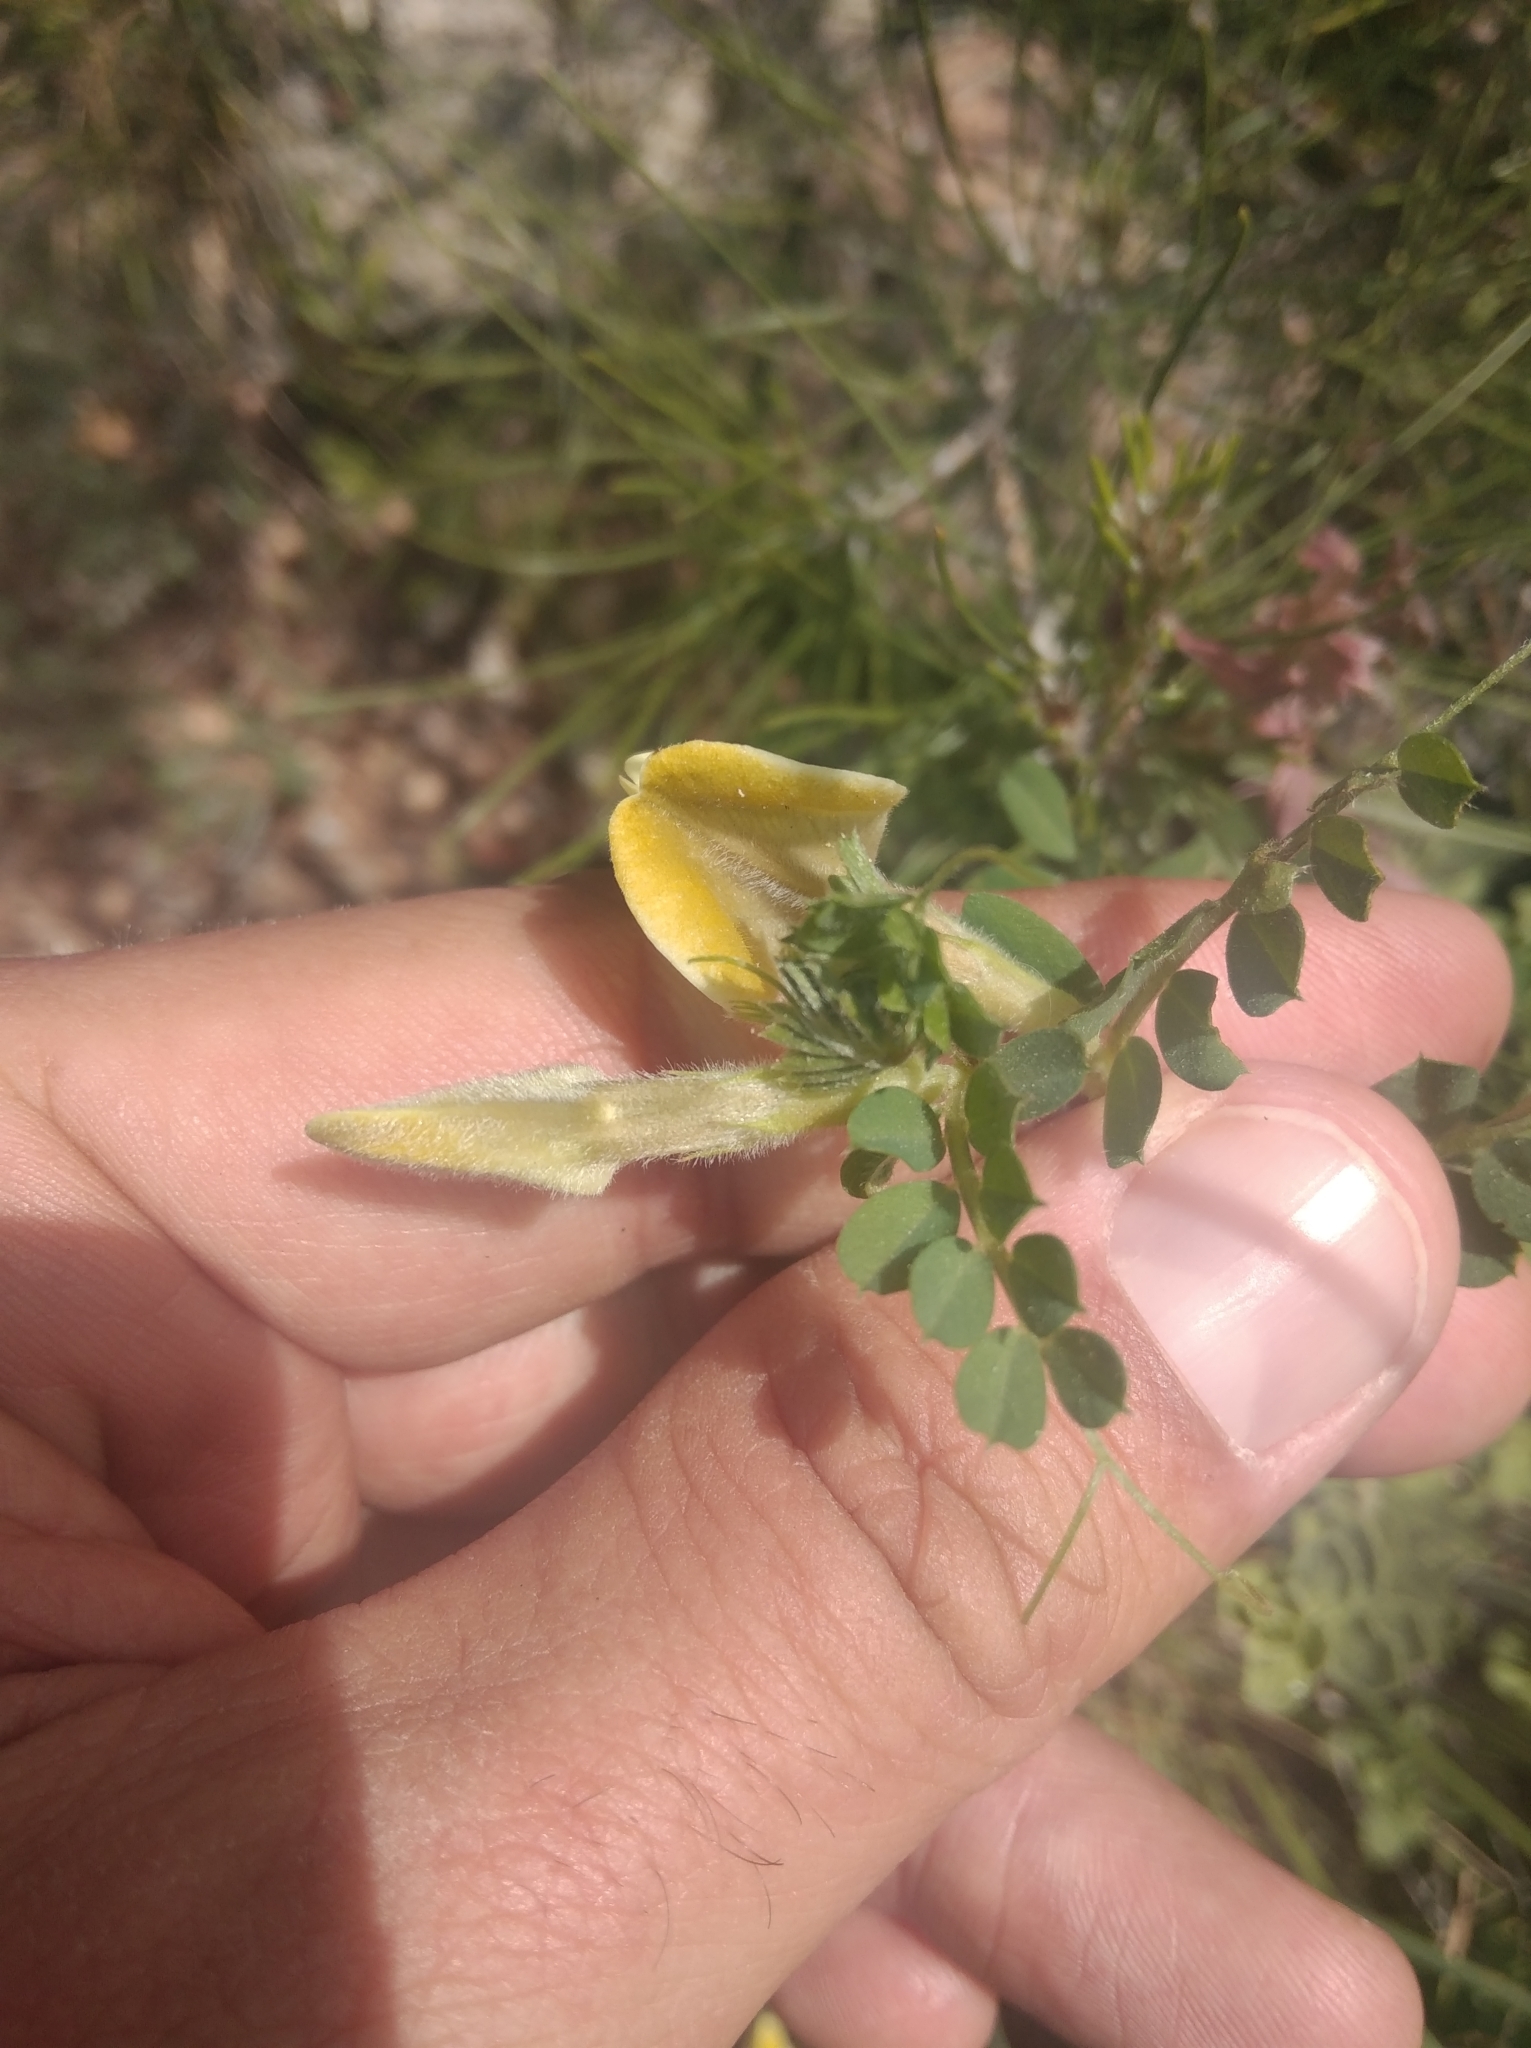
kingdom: Plantae
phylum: Tracheophyta
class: Magnoliopsida
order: Fabales
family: Fabaceae
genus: Vicia
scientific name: Vicia hybrida
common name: Hairy yellow vetch
